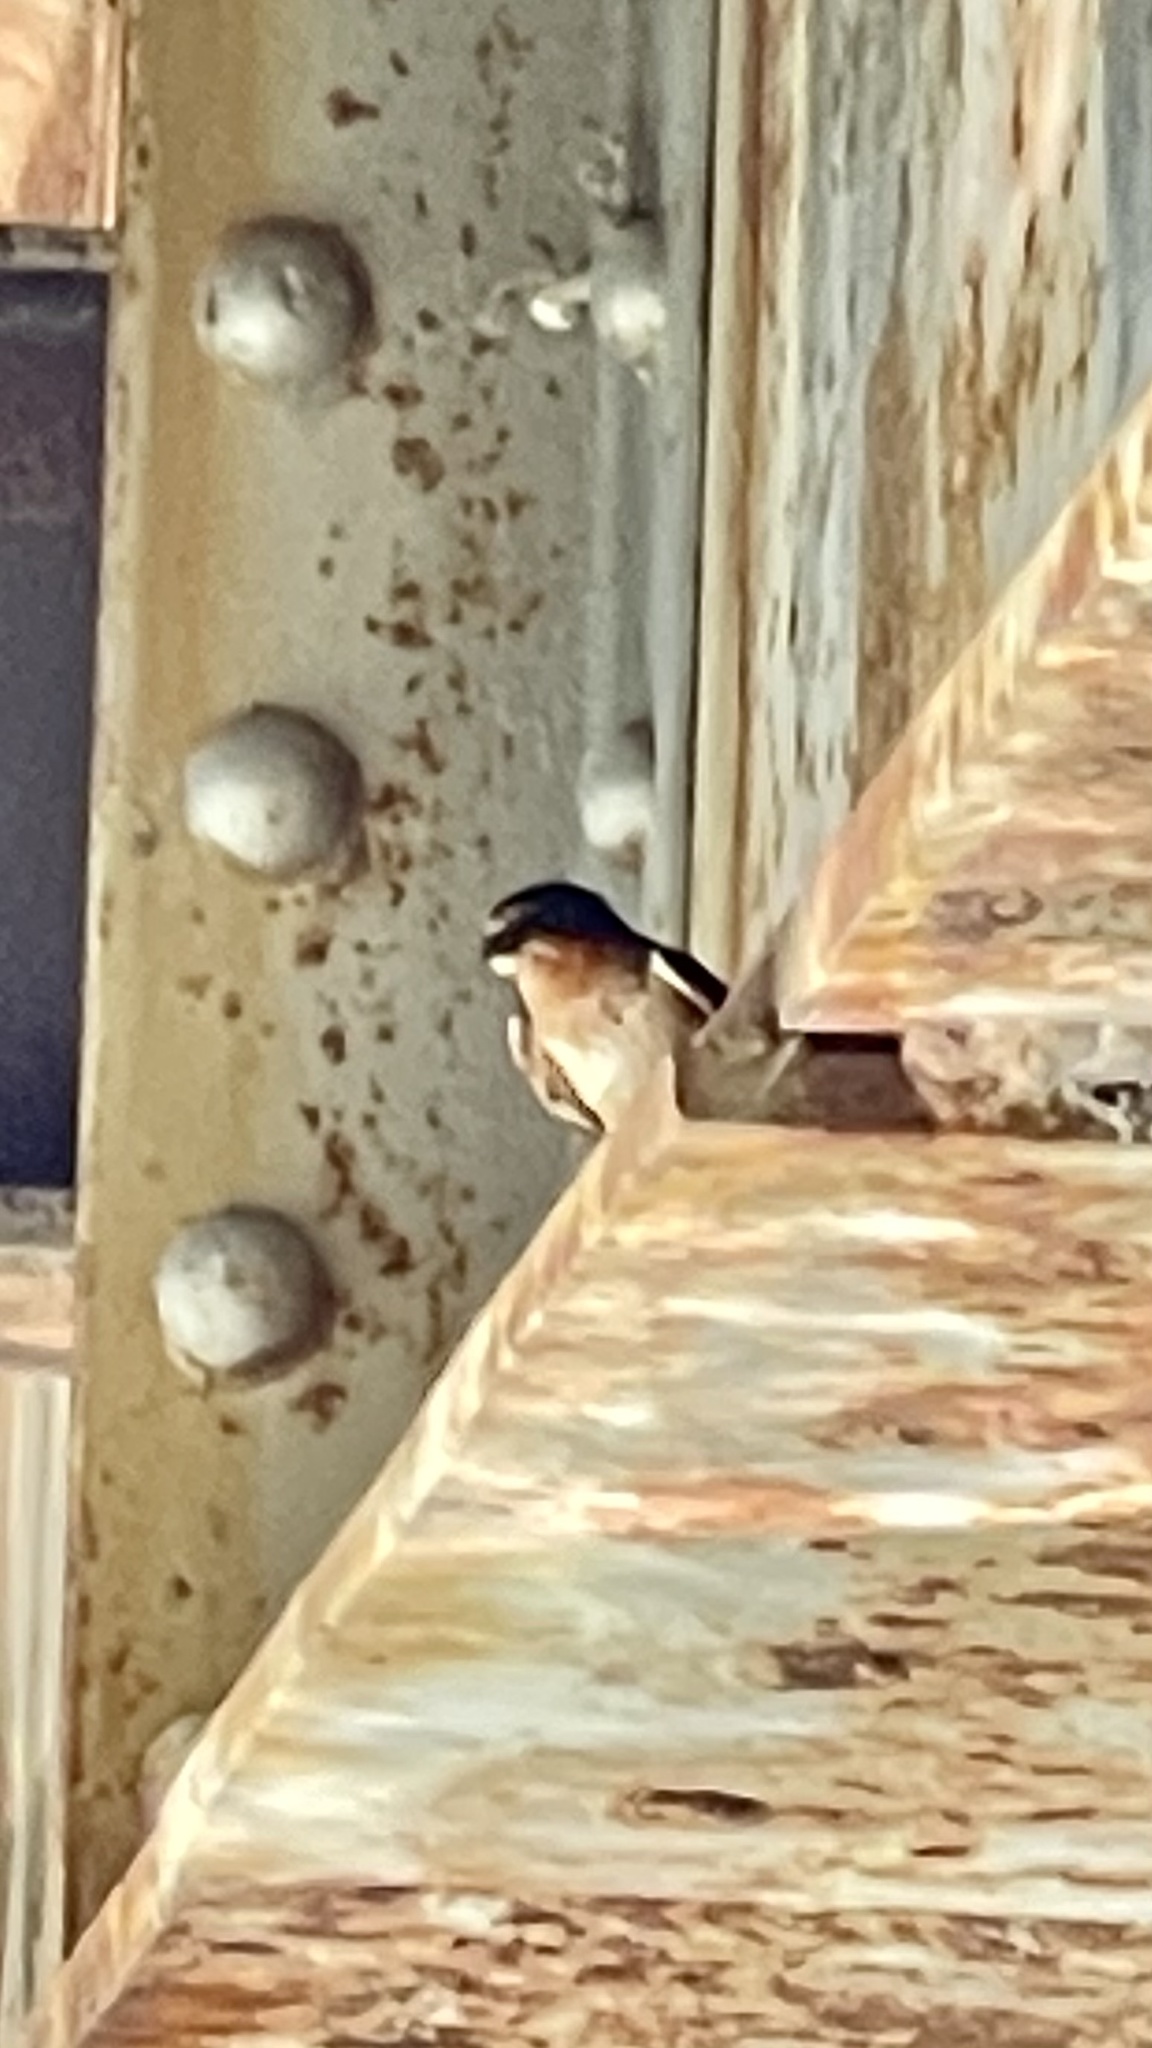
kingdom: Animalia
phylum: Chordata
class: Aves
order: Passeriformes
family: Hirundinidae
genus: Hirundo
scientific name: Hirundo rustica
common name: Barn swallow
